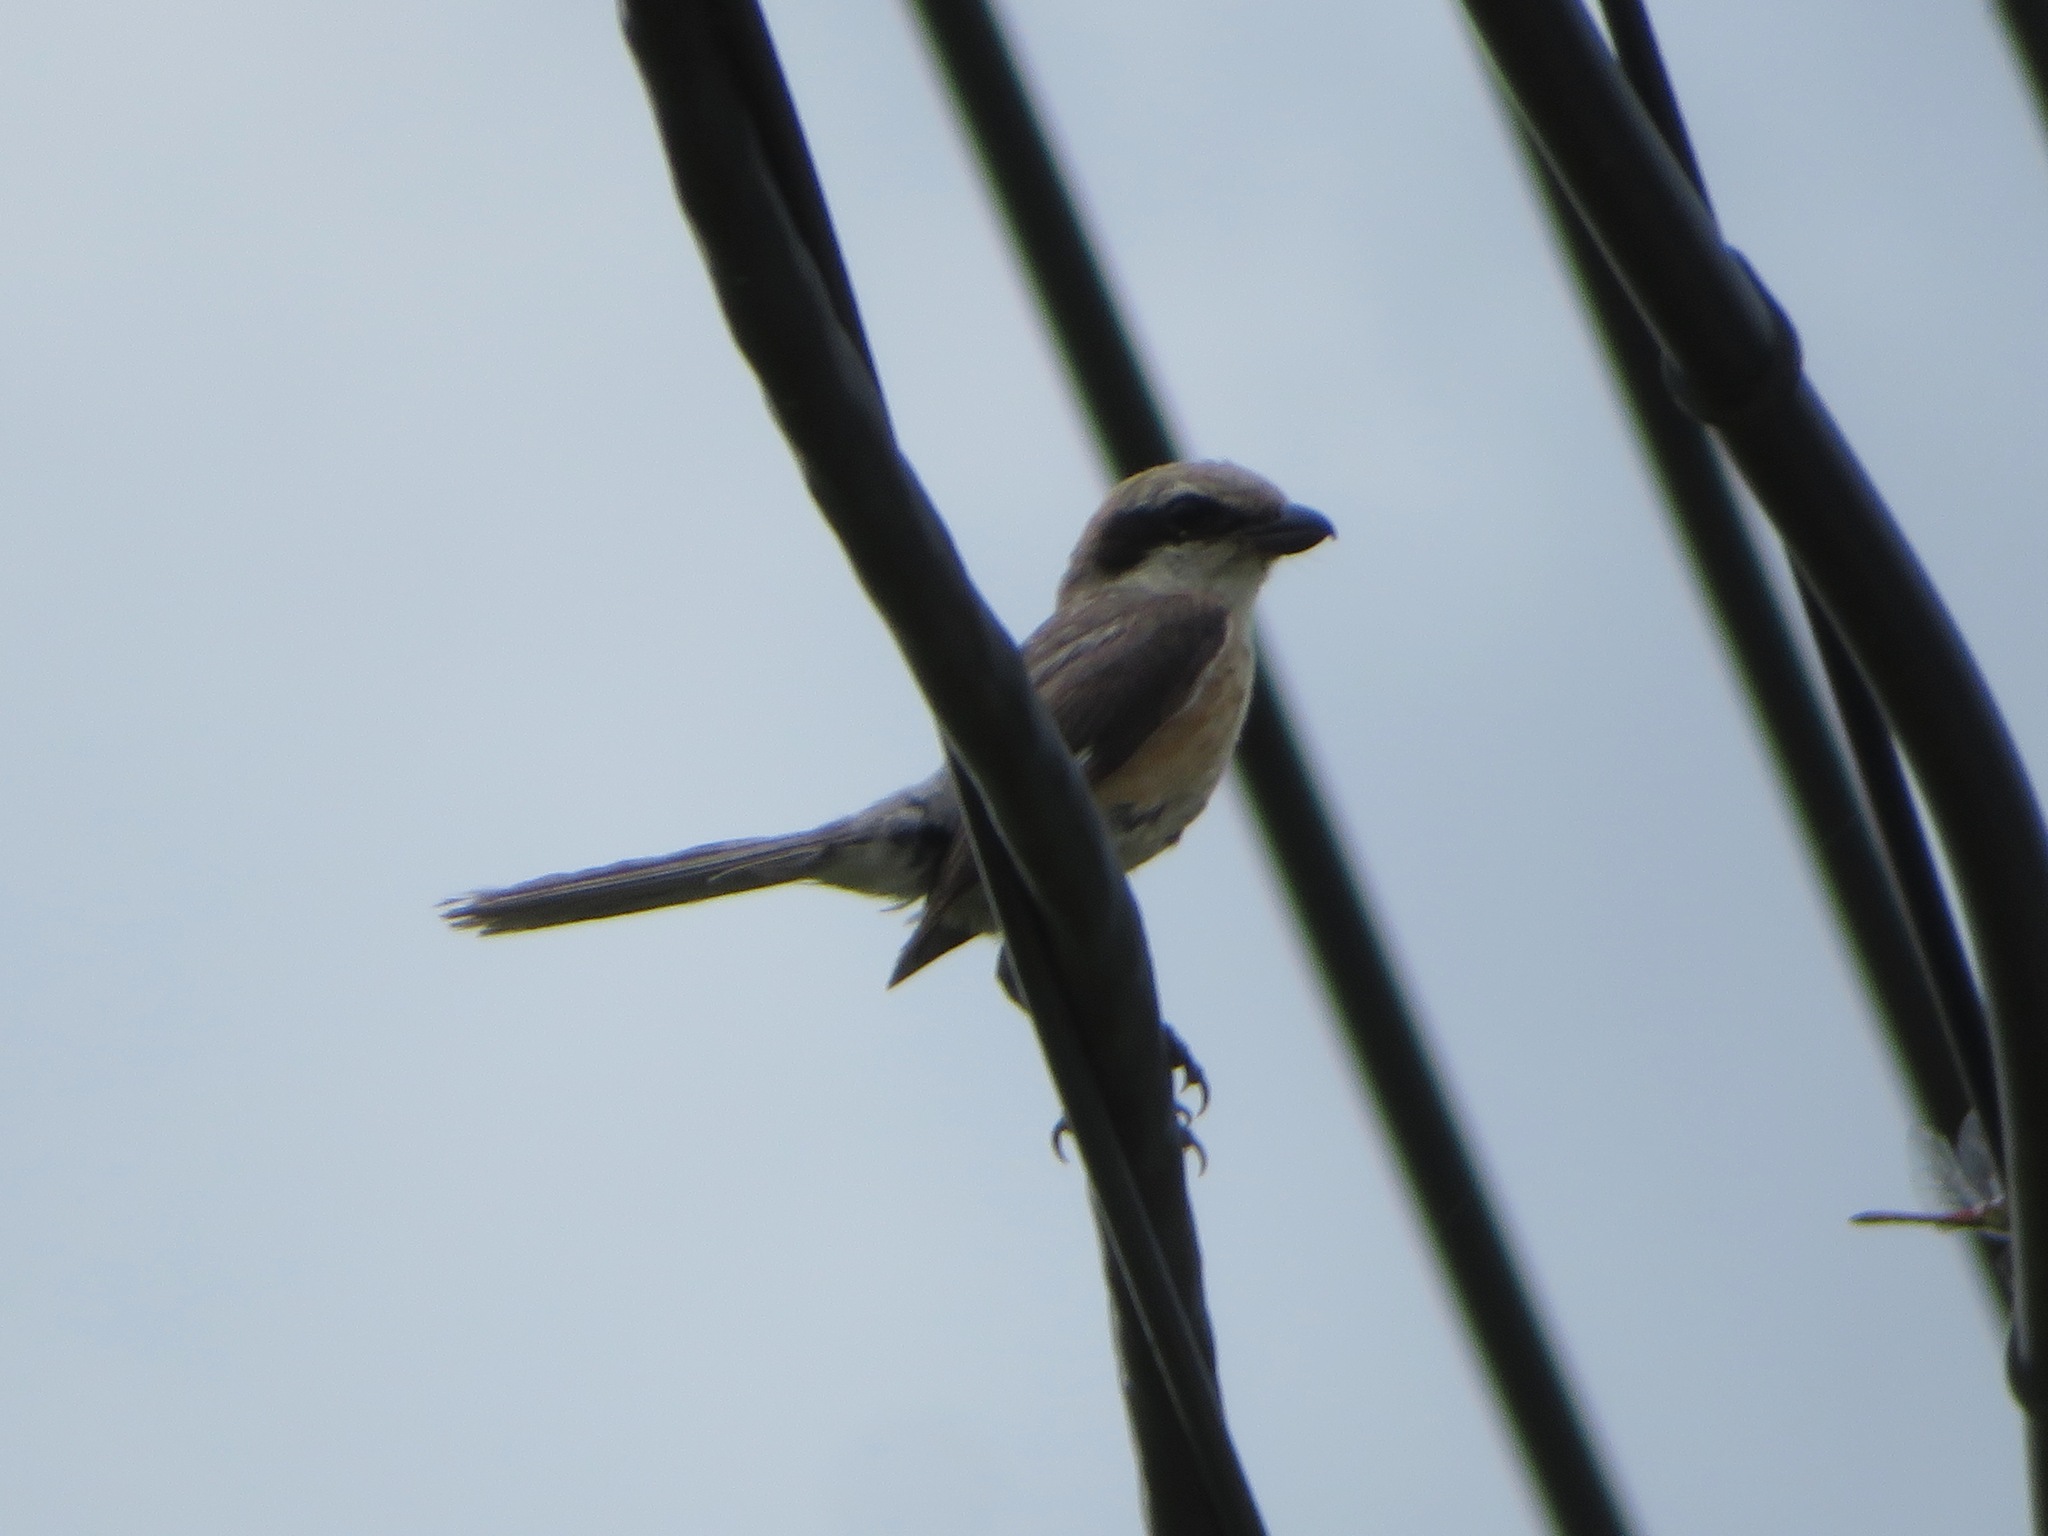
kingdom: Animalia
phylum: Chordata
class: Aves
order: Passeriformes
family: Laniidae
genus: Lanius
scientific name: Lanius bucephalus
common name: Bull-headed shrike
